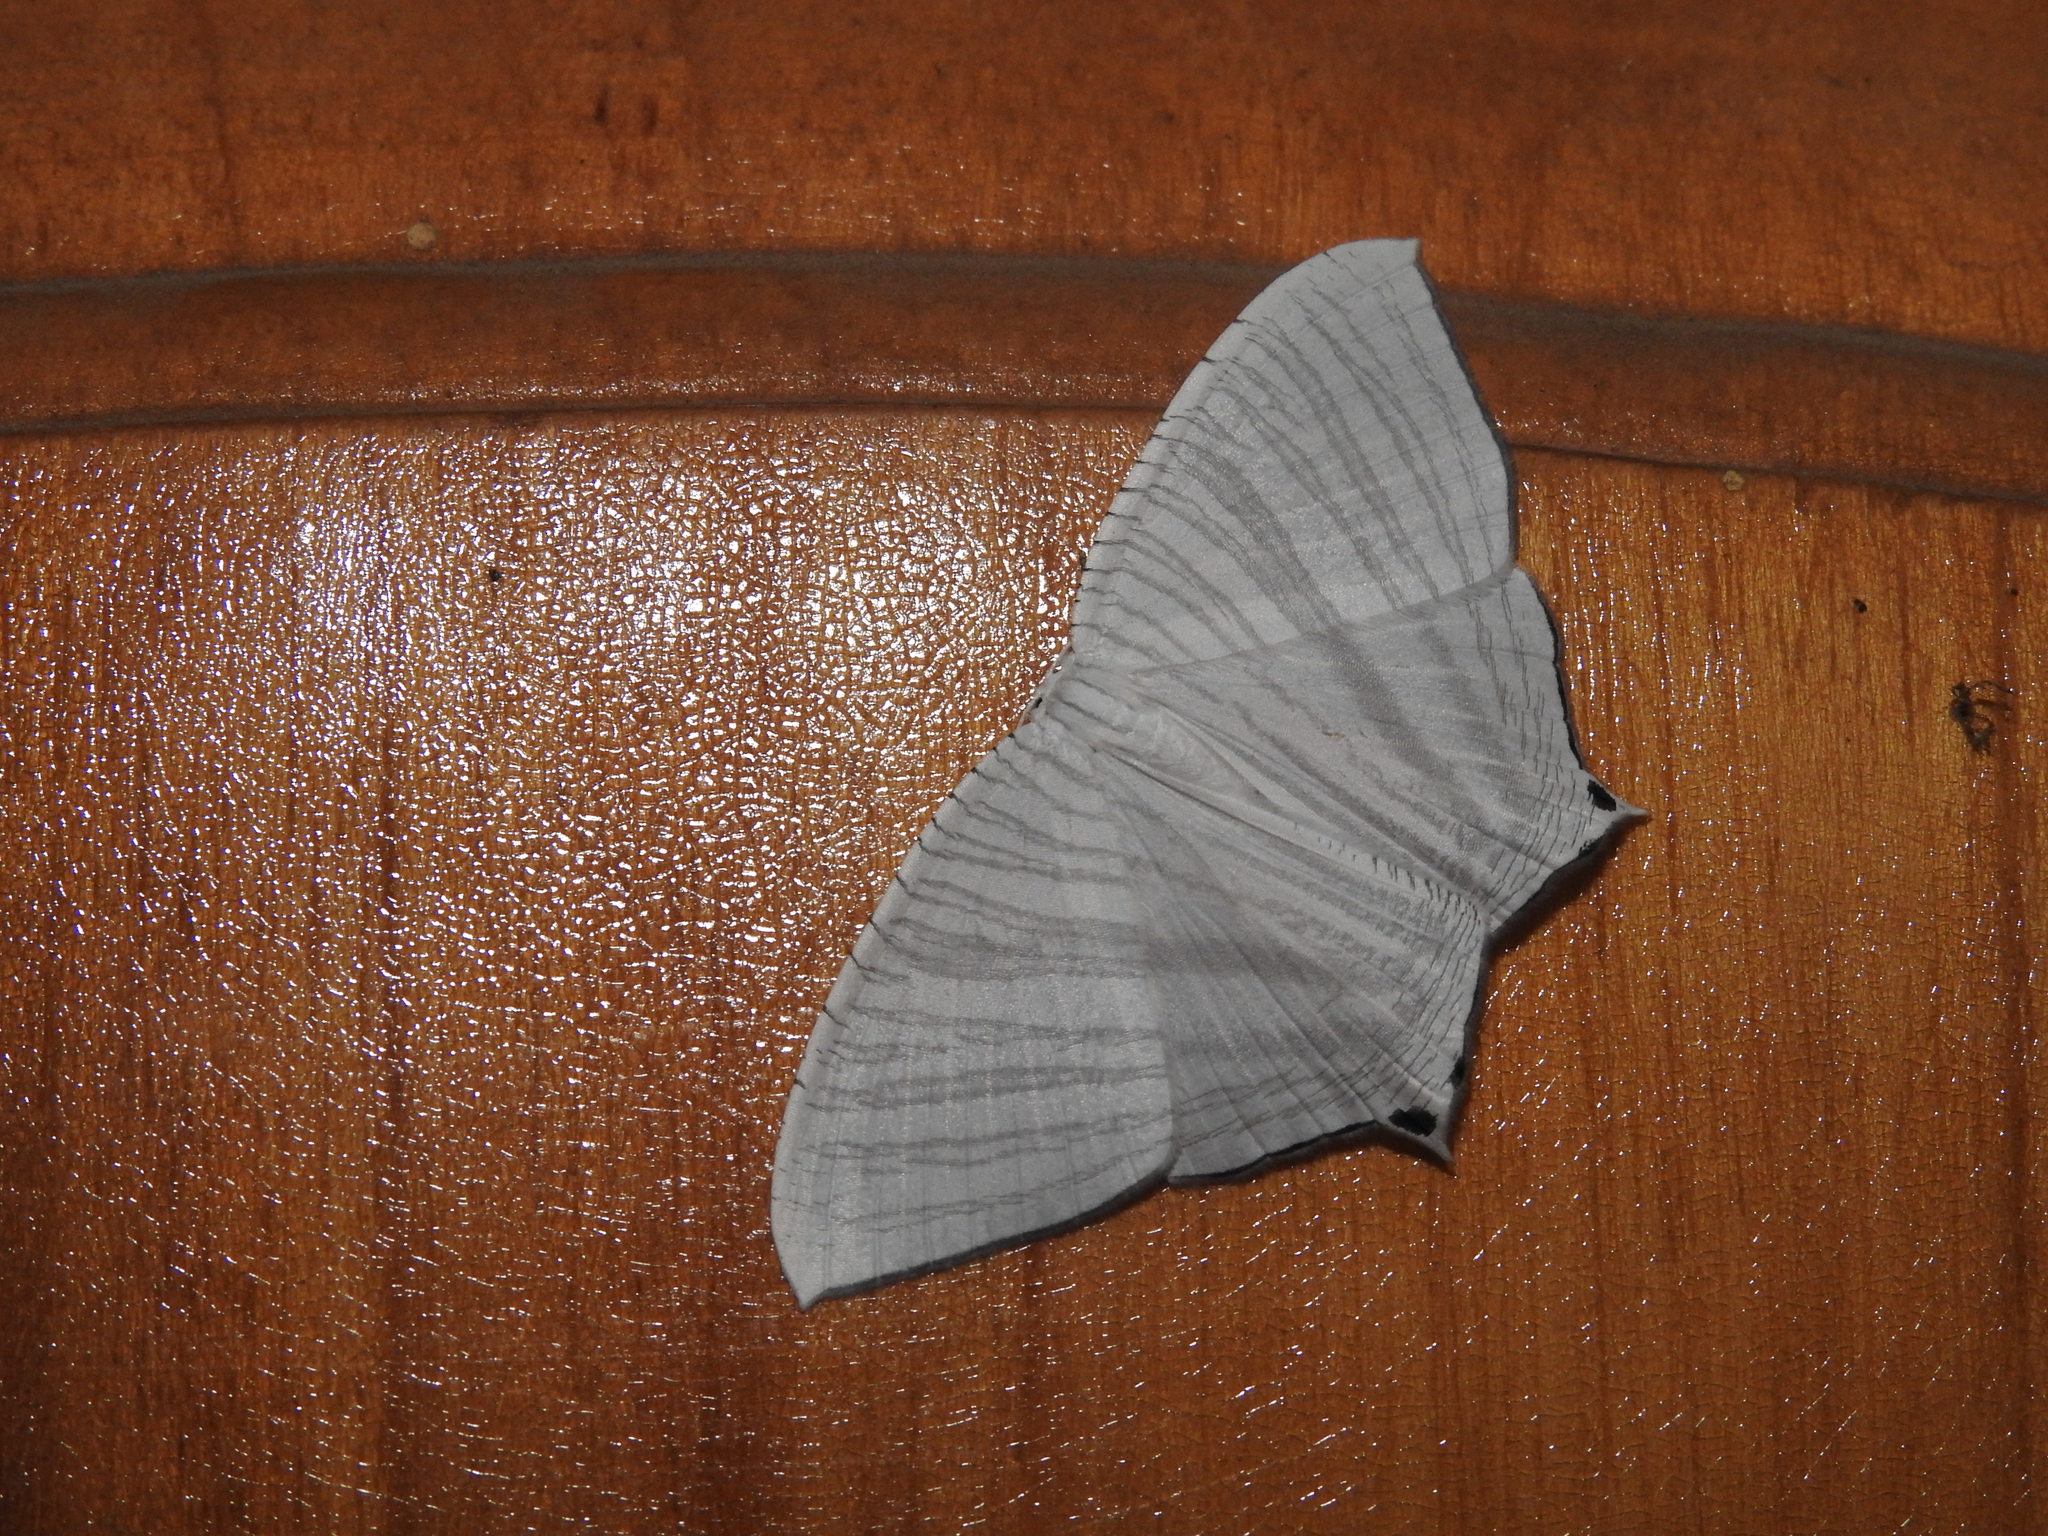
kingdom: Animalia
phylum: Arthropoda
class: Insecta
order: Lepidoptera
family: Uraniidae
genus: Pseudomicronia
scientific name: Pseudomicronia advocataria
